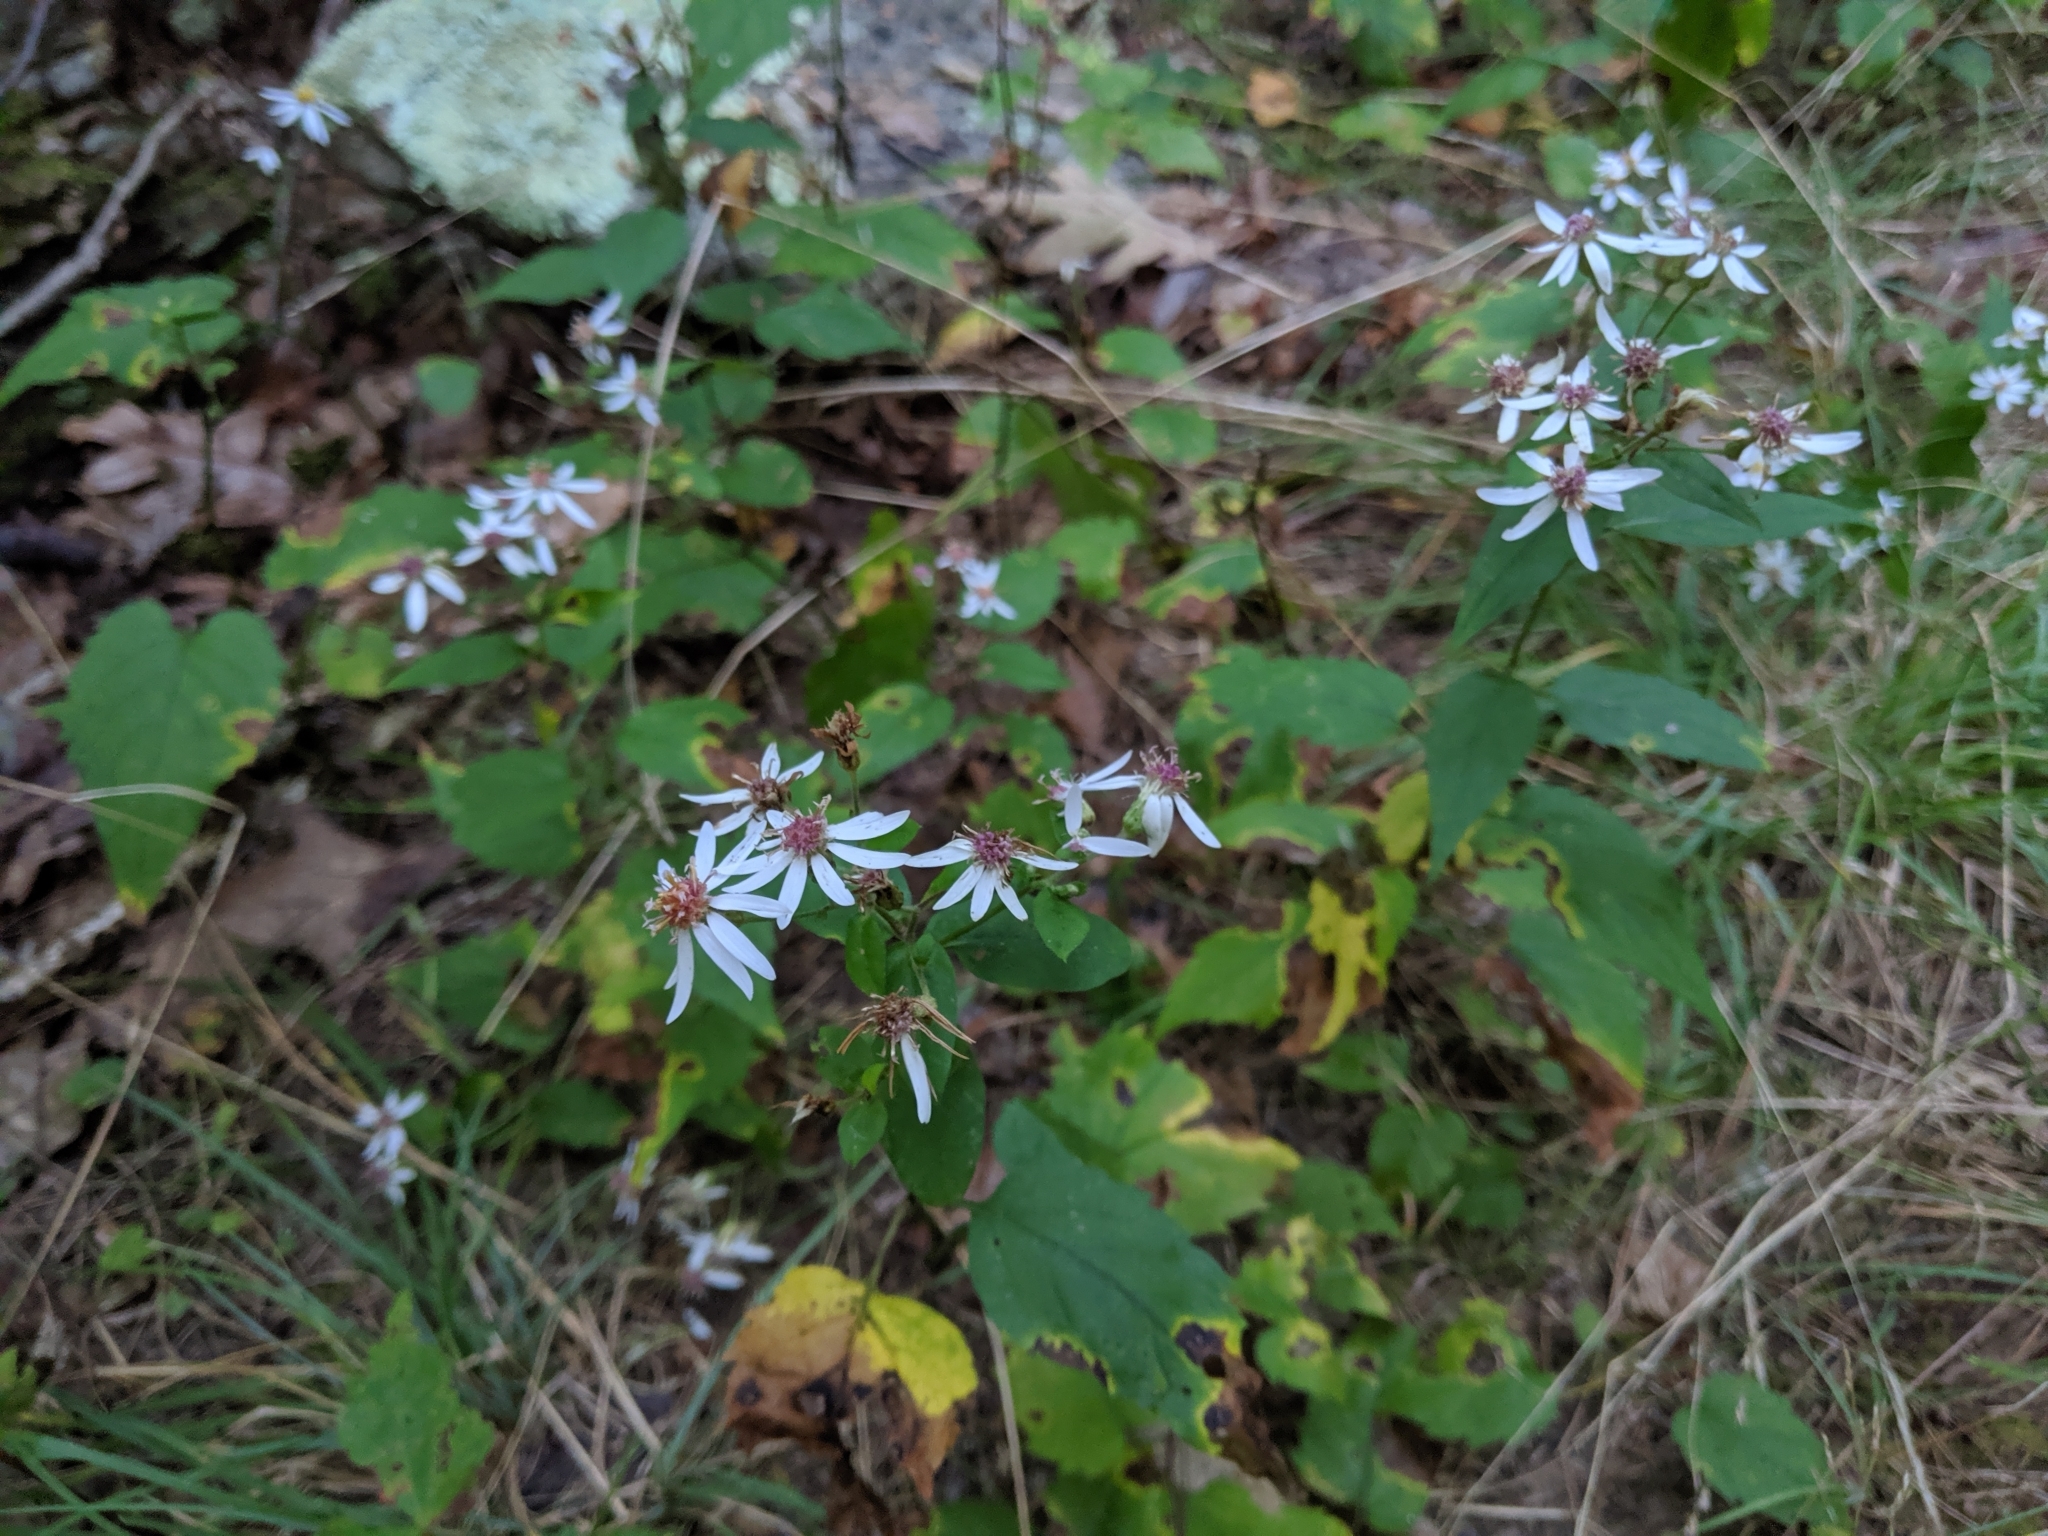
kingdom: Plantae
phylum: Tracheophyta
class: Magnoliopsida
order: Asterales
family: Asteraceae
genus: Eurybia
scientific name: Eurybia divaricata
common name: White wood aster
